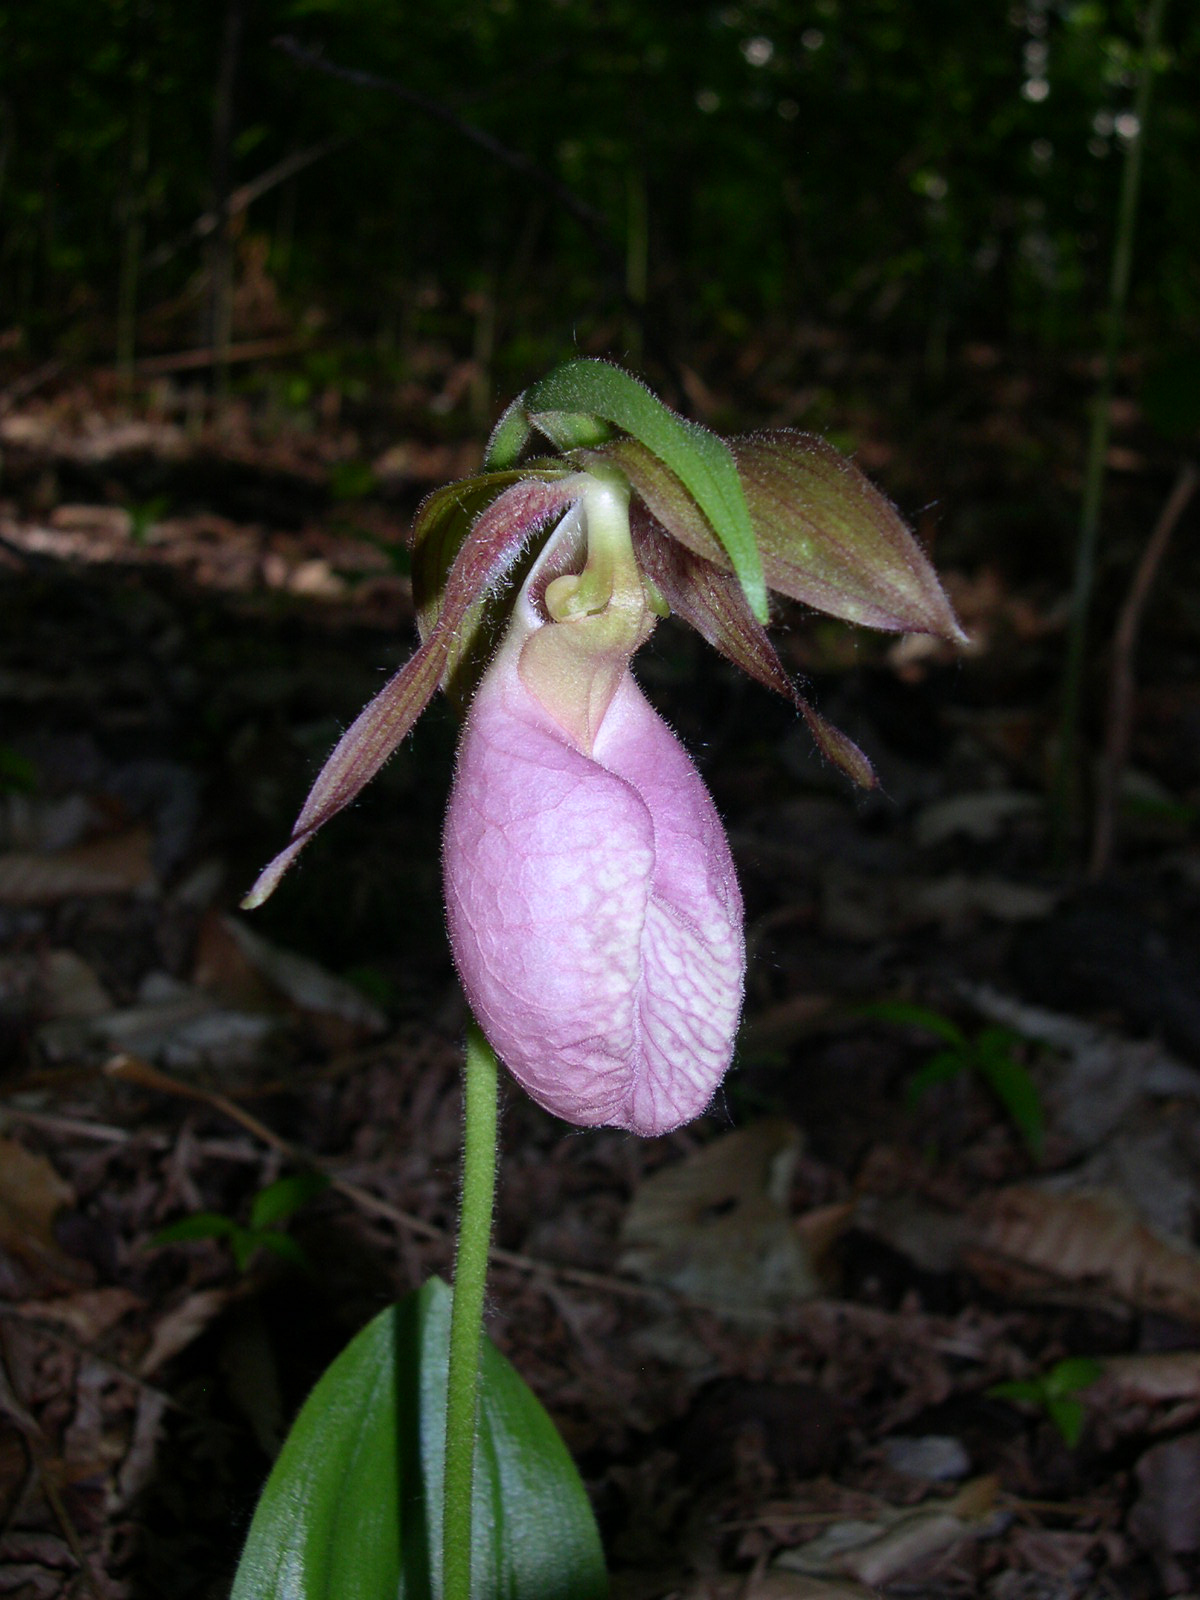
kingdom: Plantae
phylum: Tracheophyta
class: Liliopsida
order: Asparagales
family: Orchidaceae
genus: Cypripedium
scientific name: Cypripedium acaule
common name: Pink lady's-slipper
